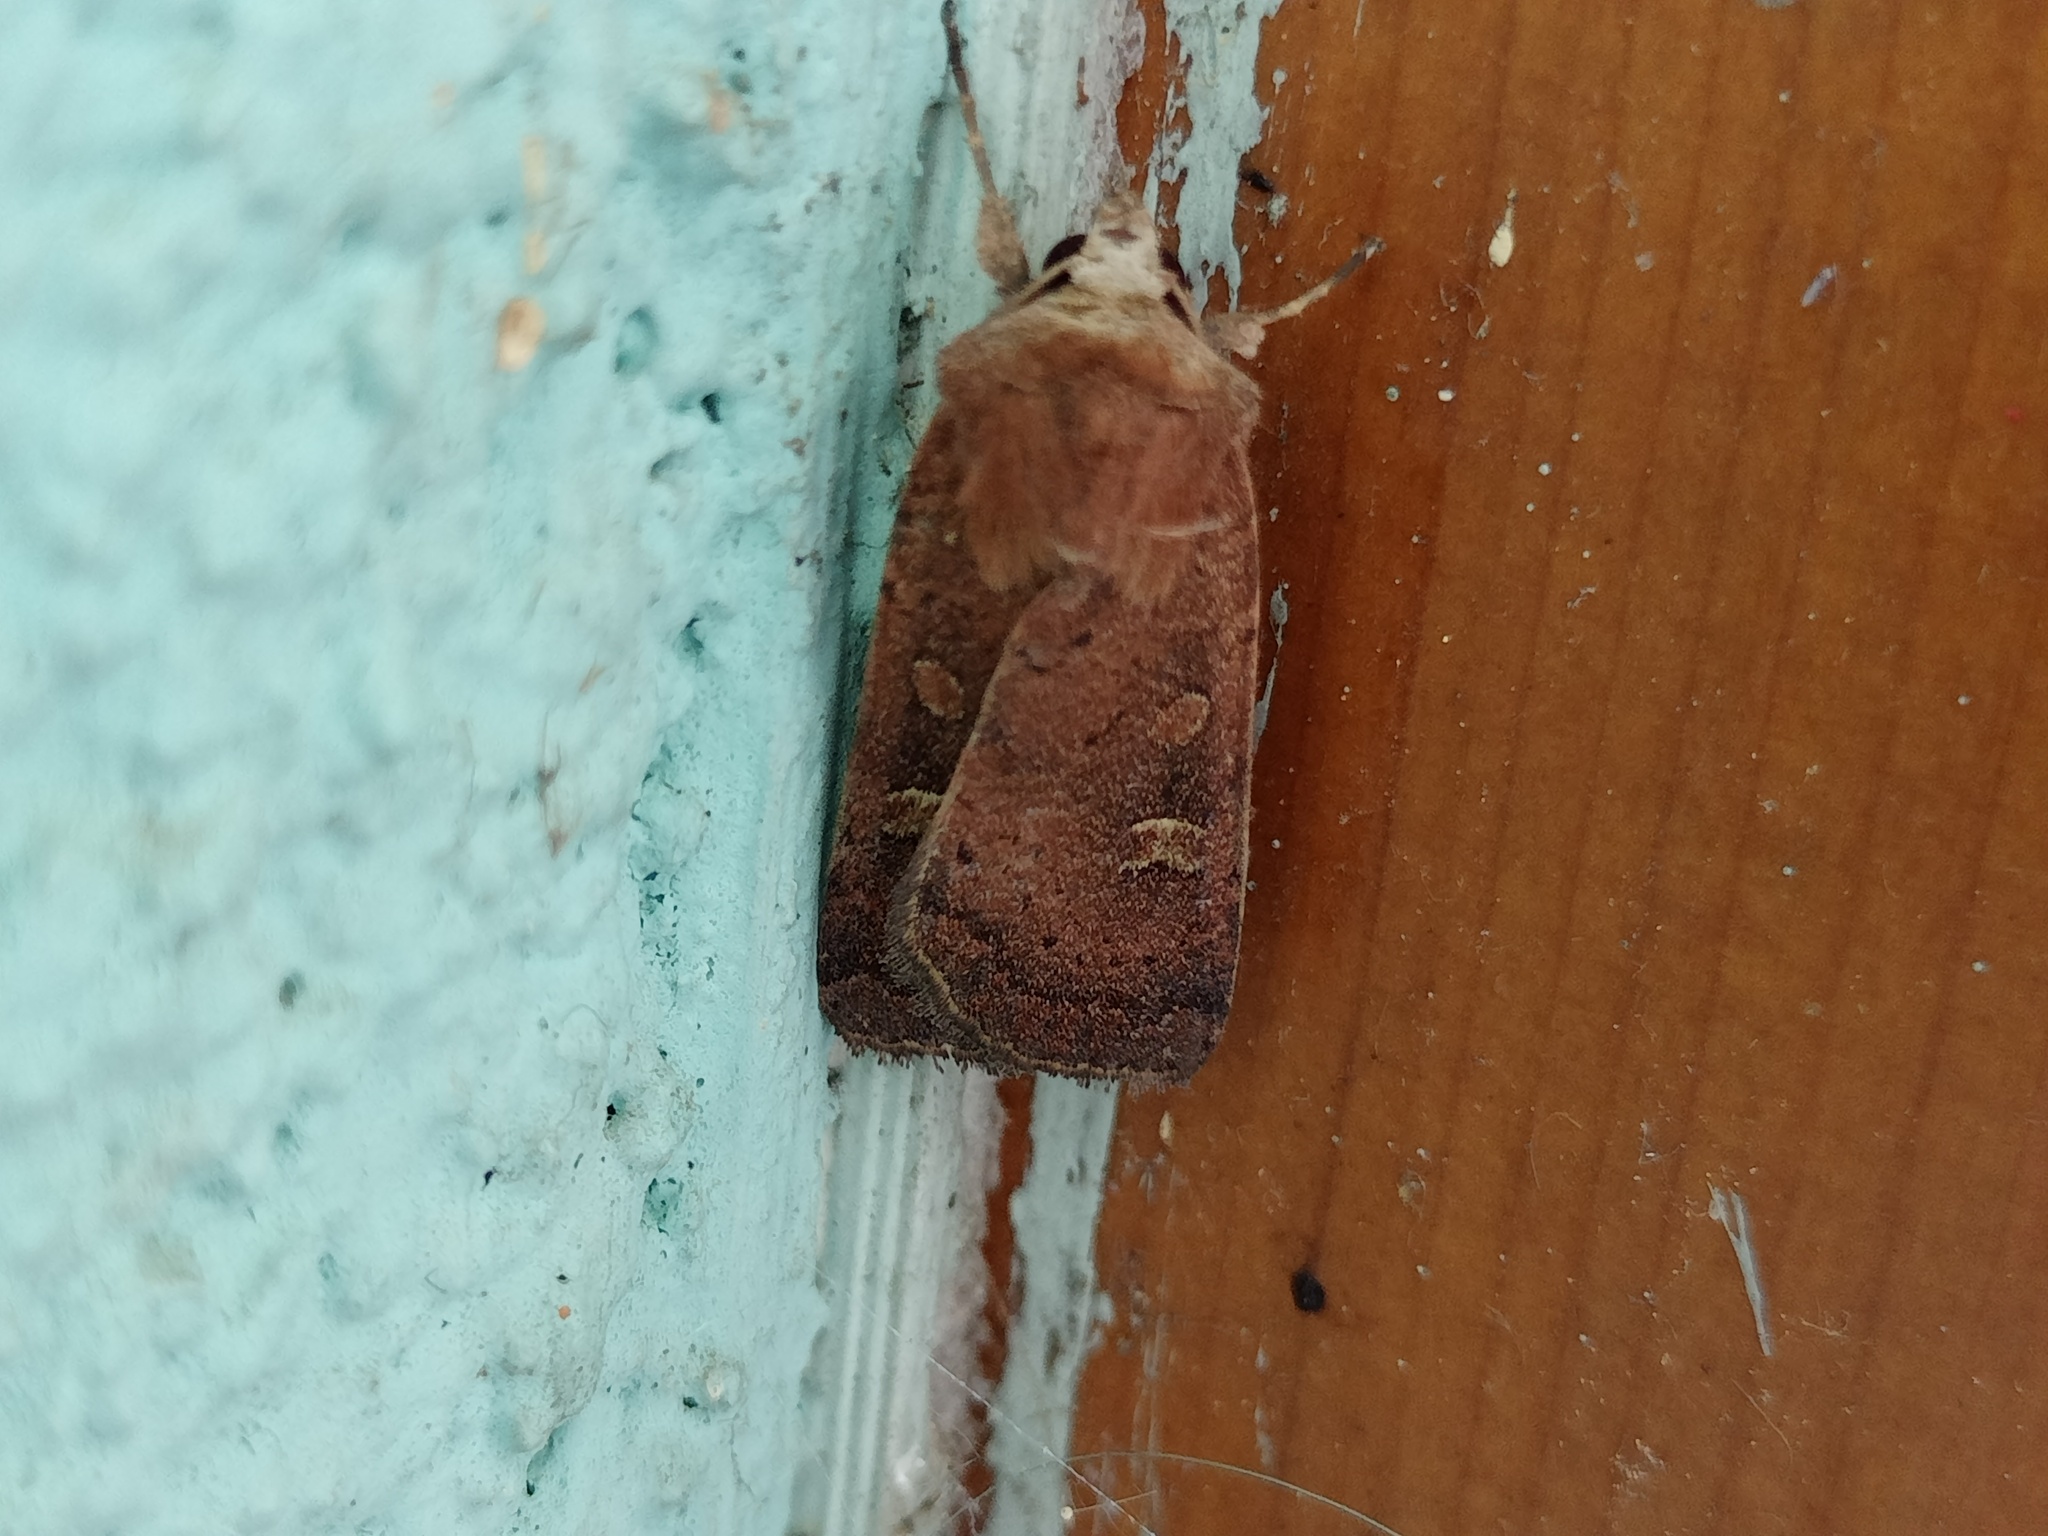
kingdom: Animalia
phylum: Arthropoda
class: Insecta
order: Lepidoptera
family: Noctuidae
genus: Xestia
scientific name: Xestia xanthographa
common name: Square-spot rustic
